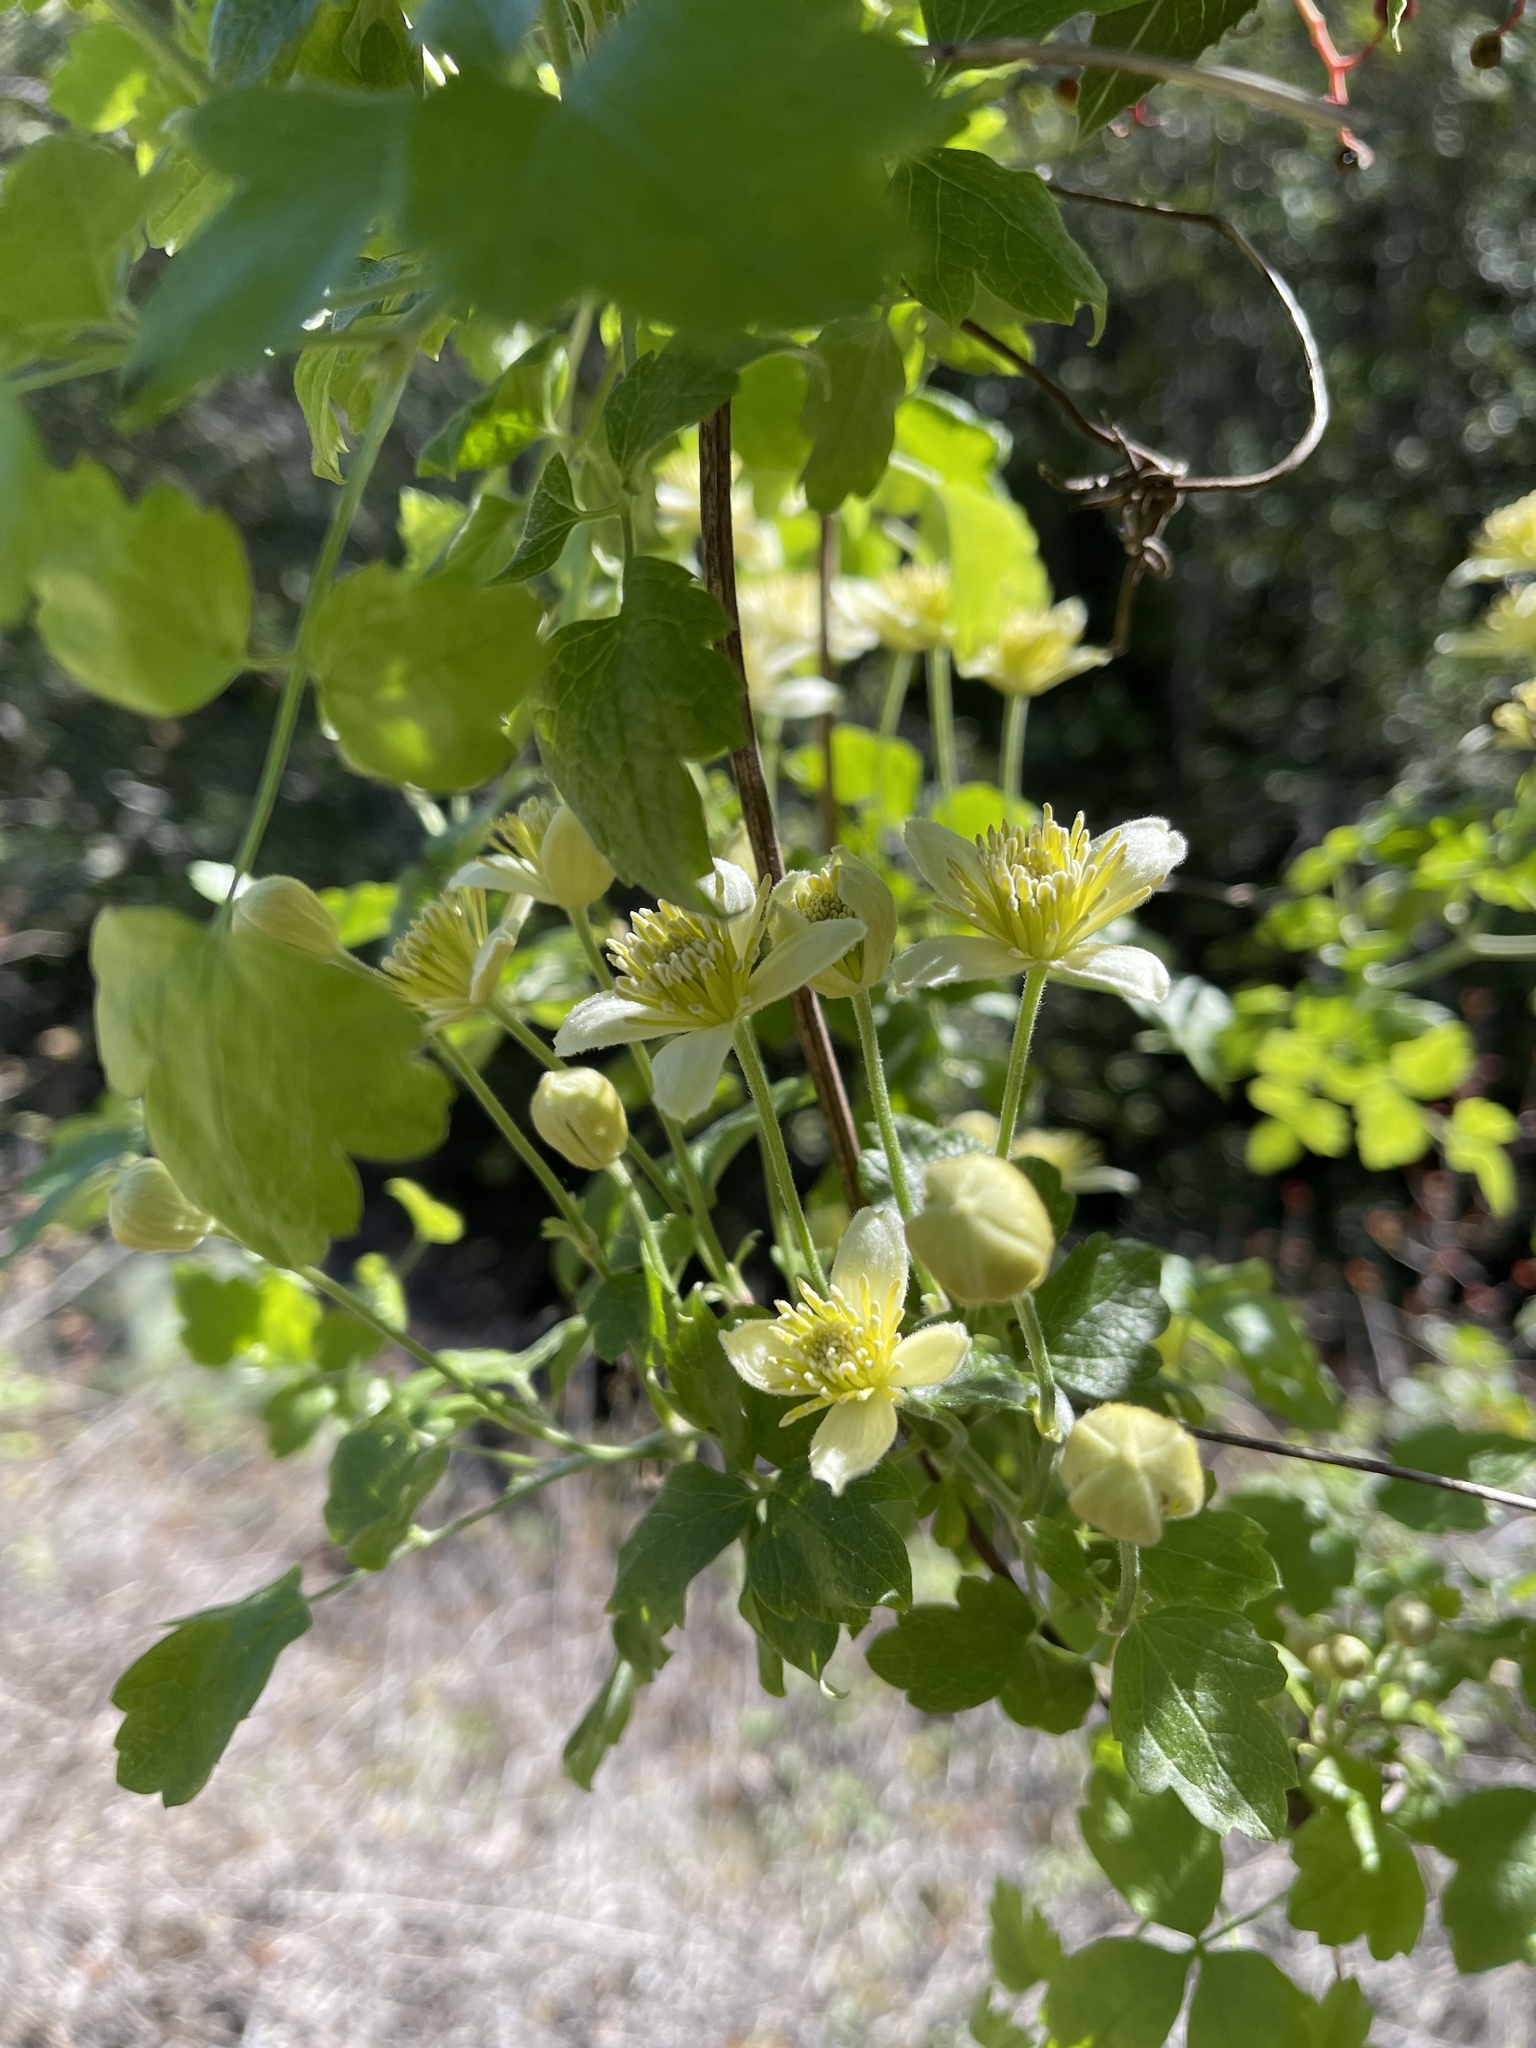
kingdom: Plantae
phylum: Tracheophyta
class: Magnoliopsida
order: Ranunculales
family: Ranunculaceae
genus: Clematis
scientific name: Clematis lasiantha
